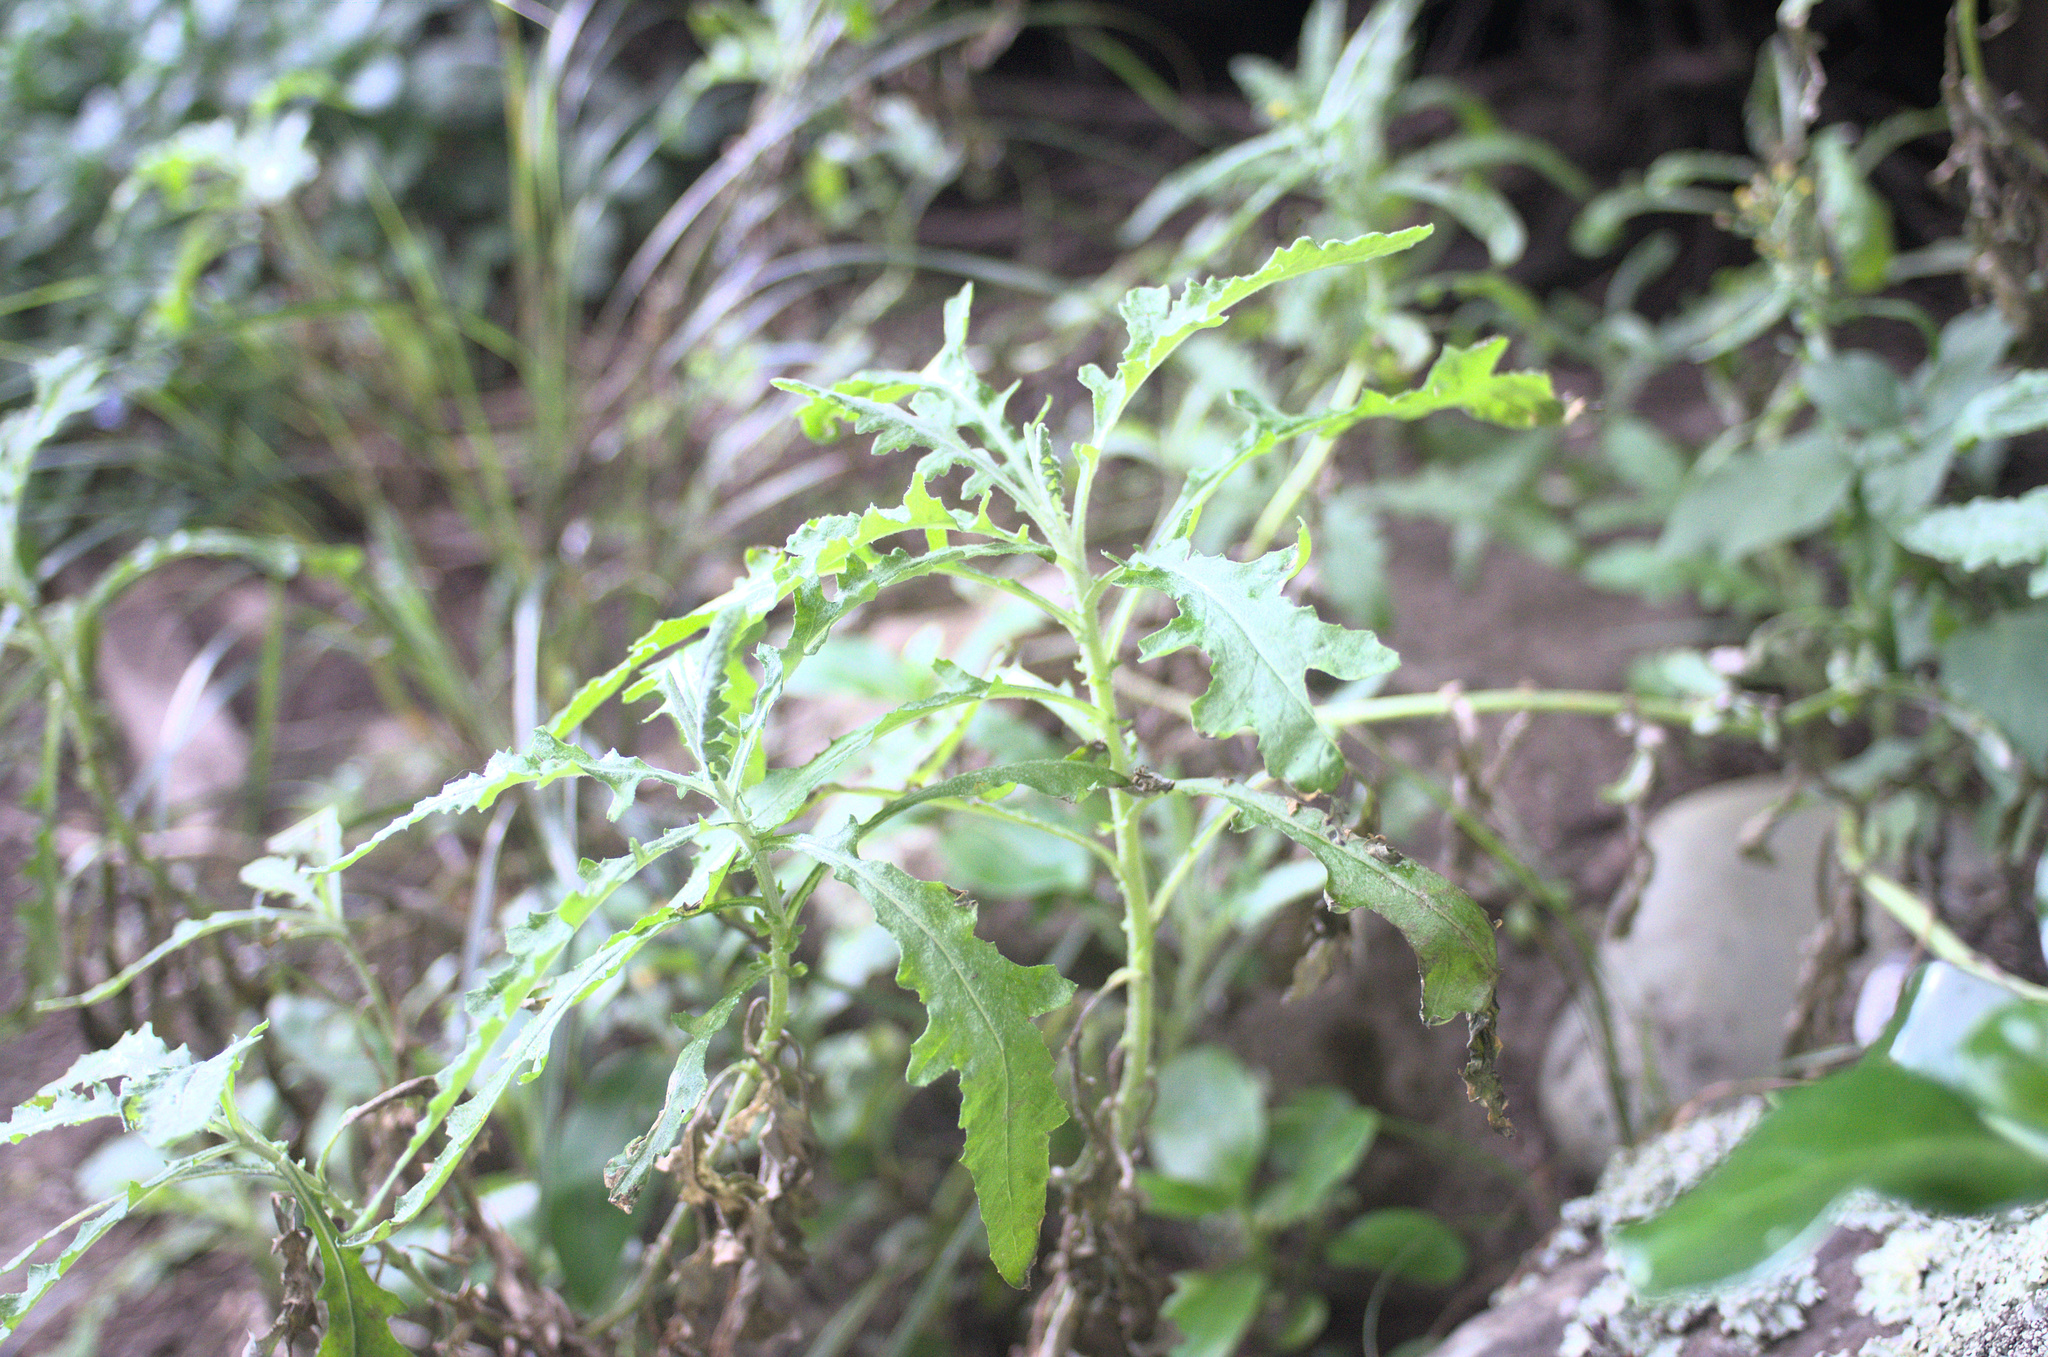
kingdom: Plantae
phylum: Tracheophyta
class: Magnoliopsida
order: Asterales
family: Asteraceae
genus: Senecio
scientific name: Senecio glomeratus
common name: Cutleaf burnweed
